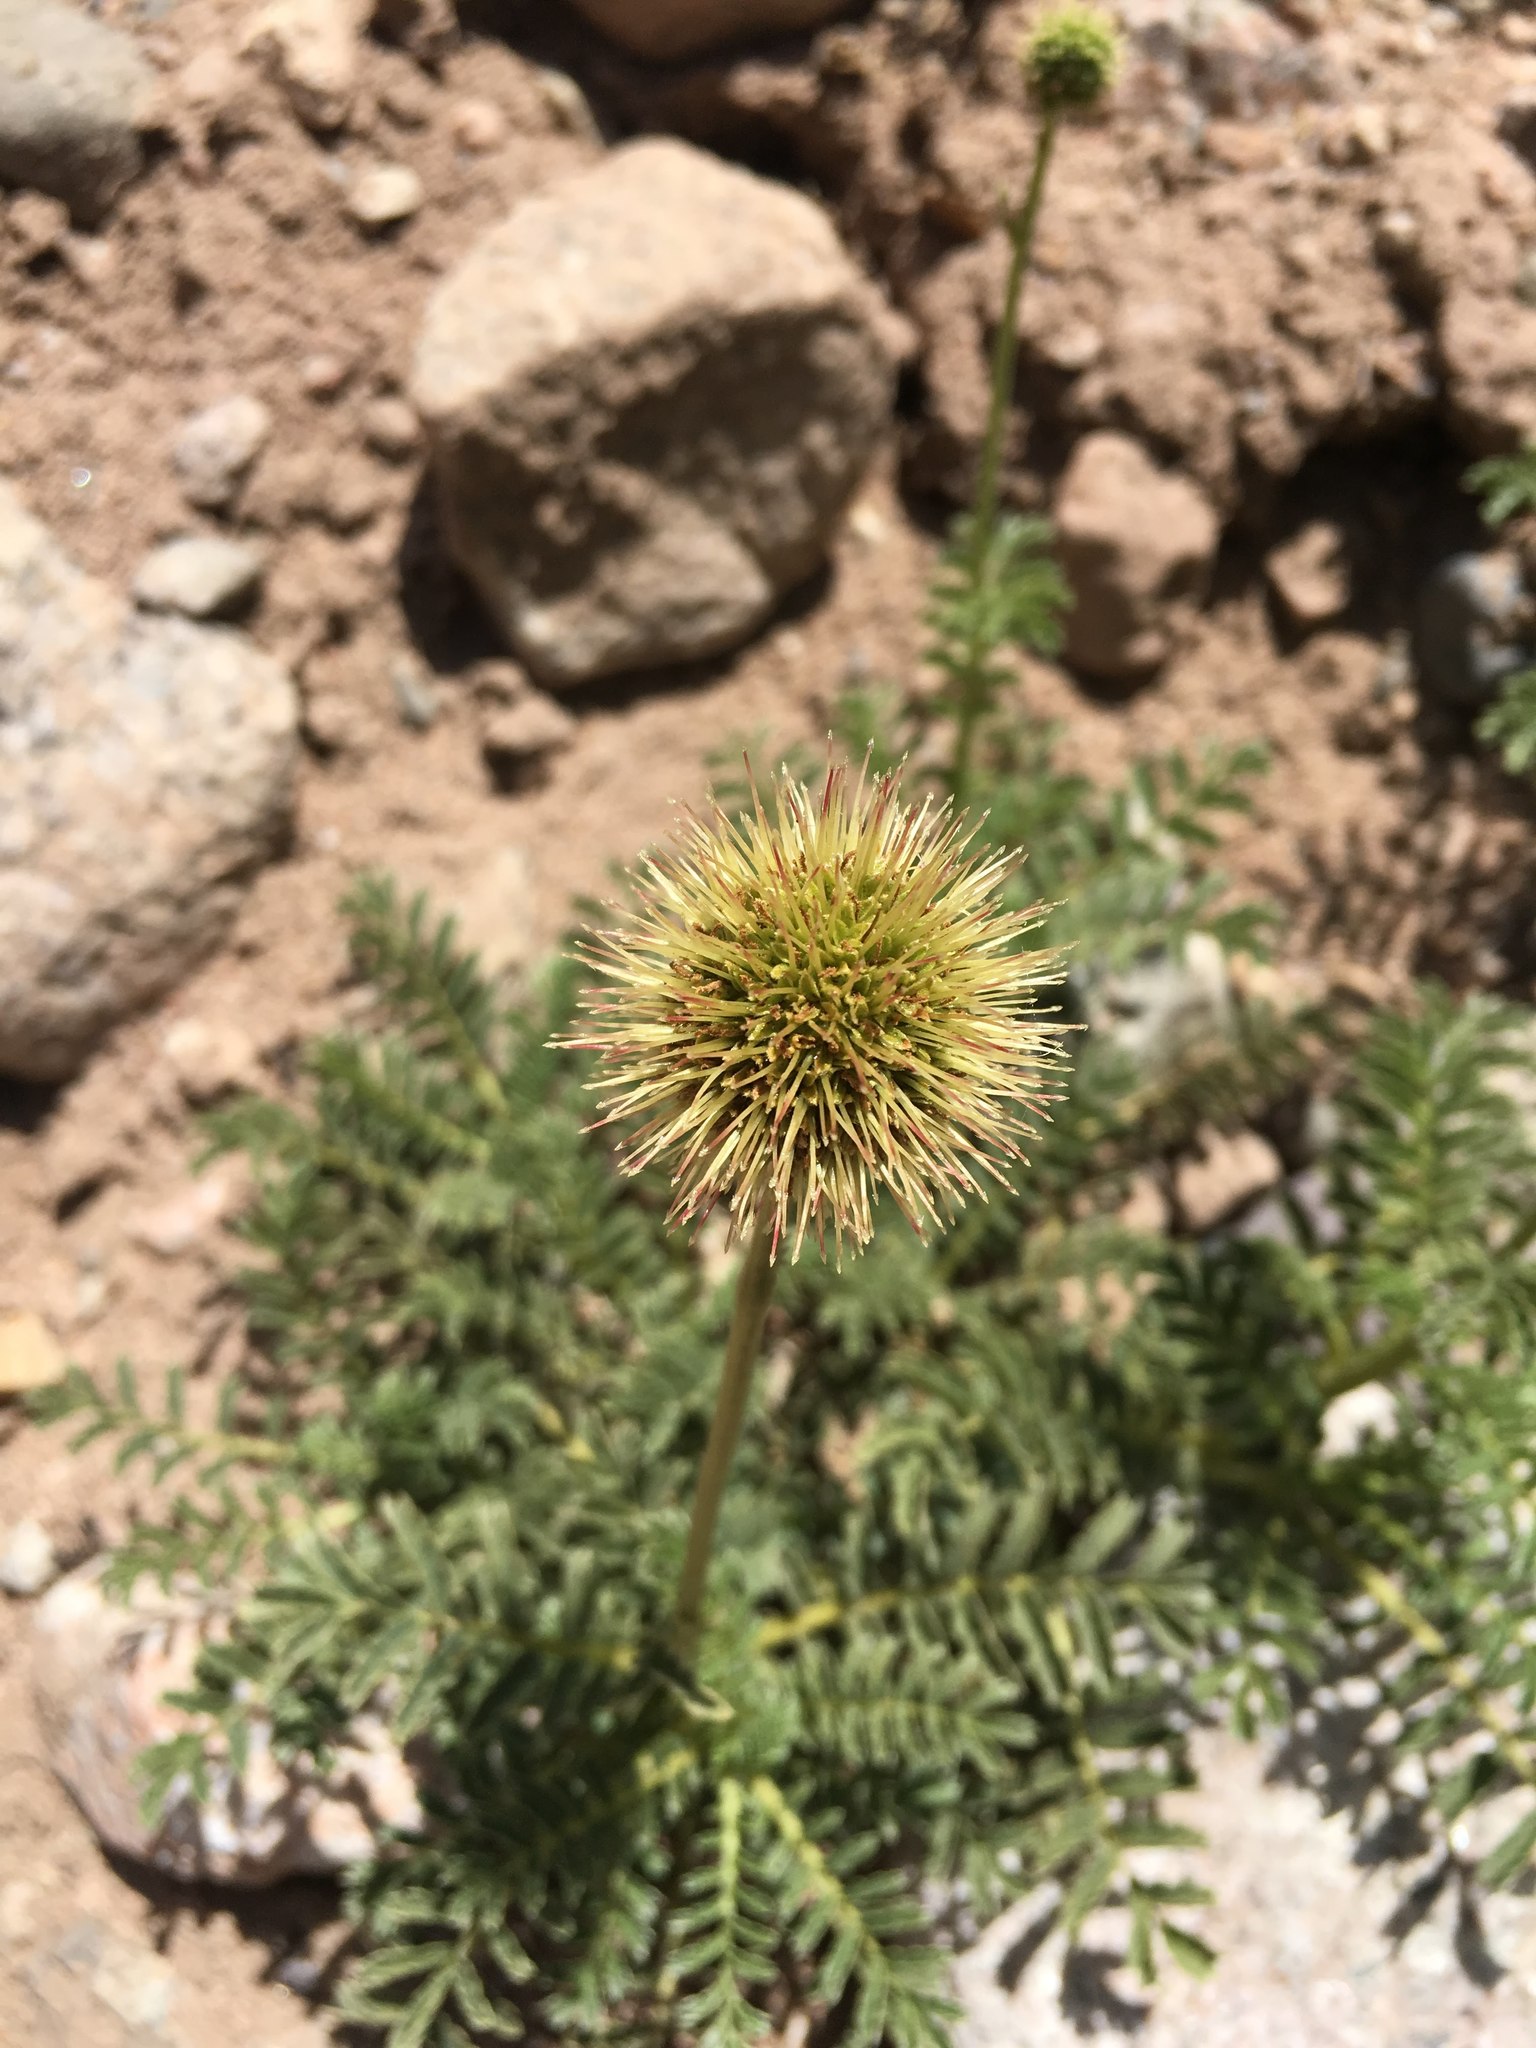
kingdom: Plantae
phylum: Tracheophyta
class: Magnoliopsida
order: Rosales
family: Rosaceae
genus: Acaena
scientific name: Acaena magellanica
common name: New zealand burr
